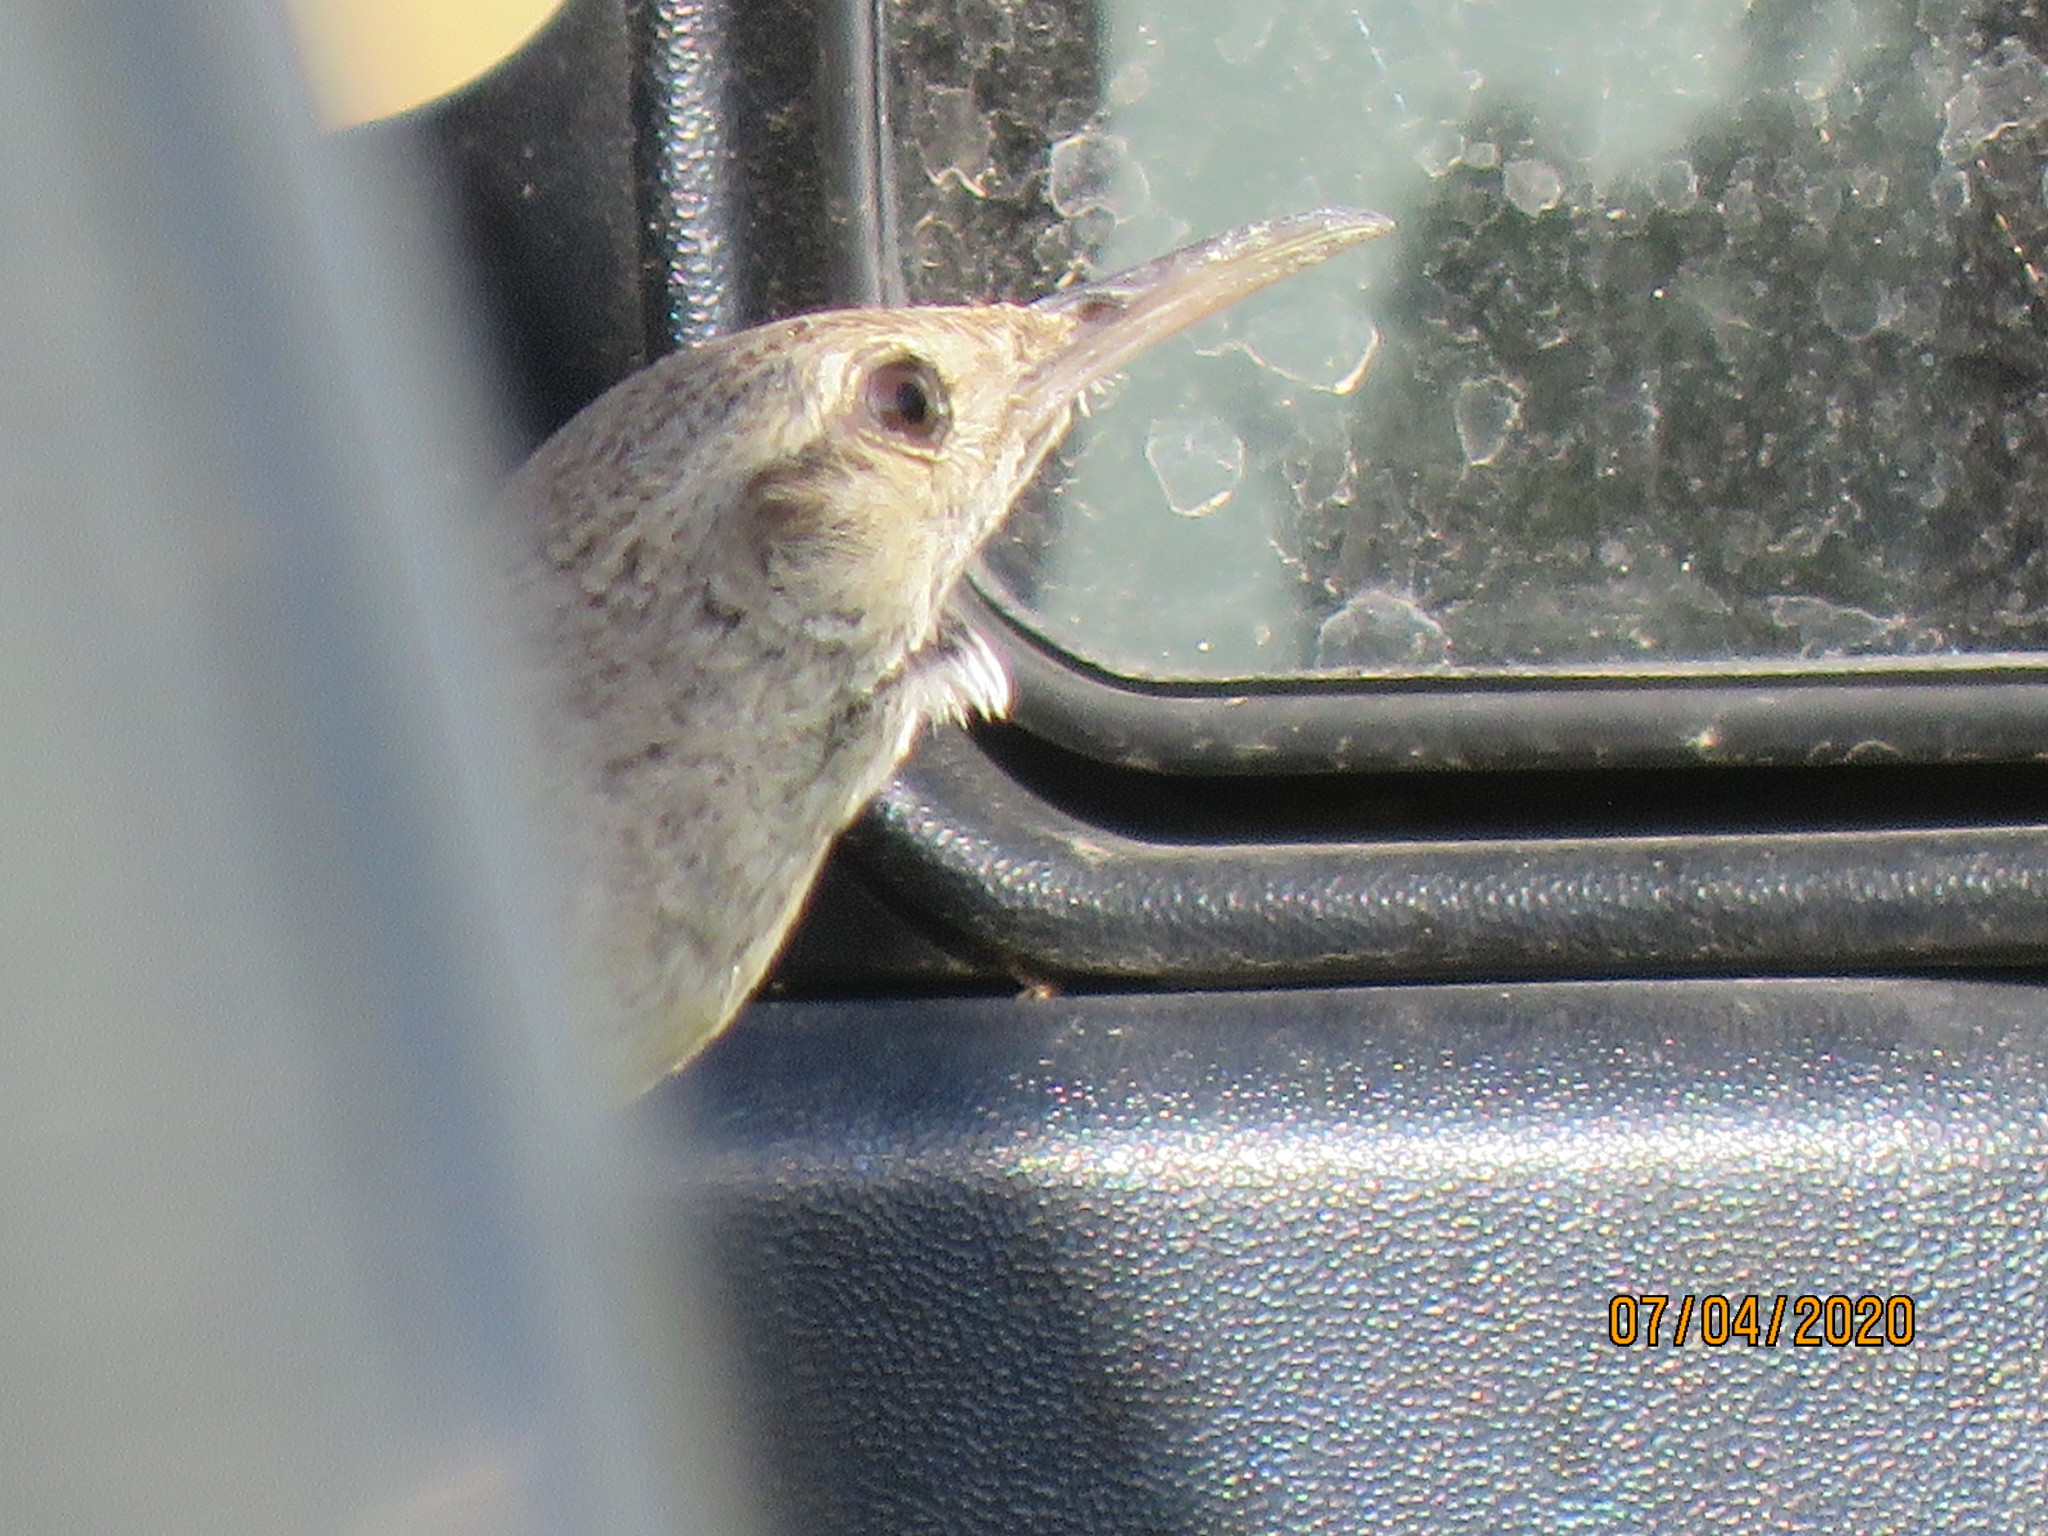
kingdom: Animalia
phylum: Chordata
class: Aves
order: Passeriformes
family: Troglodytidae
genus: Salpinctes
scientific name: Salpinctes obsoletus
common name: Rock wren
